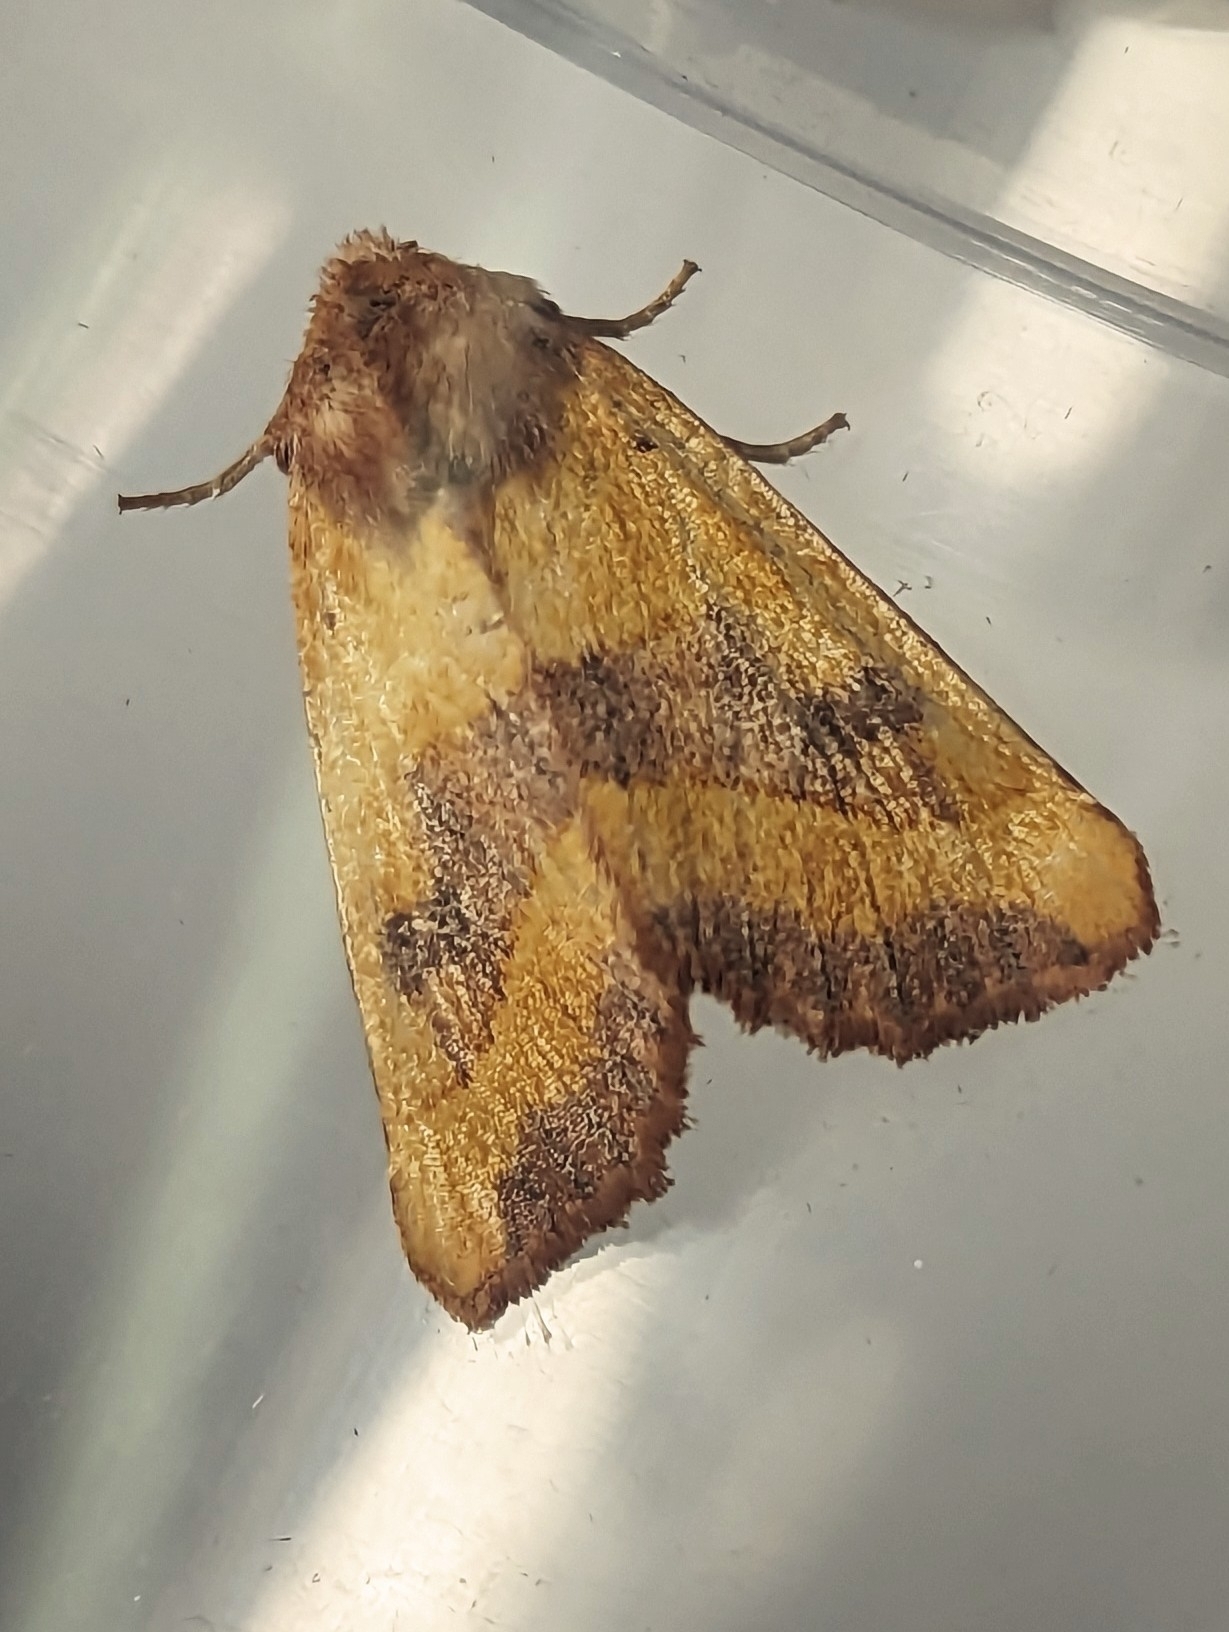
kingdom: Animalia
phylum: Arthropoda
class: Insecta
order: Lepidoptera
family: Noctuidae
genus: Atethmia
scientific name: Atethmia centrago
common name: Centre-barred sallow
